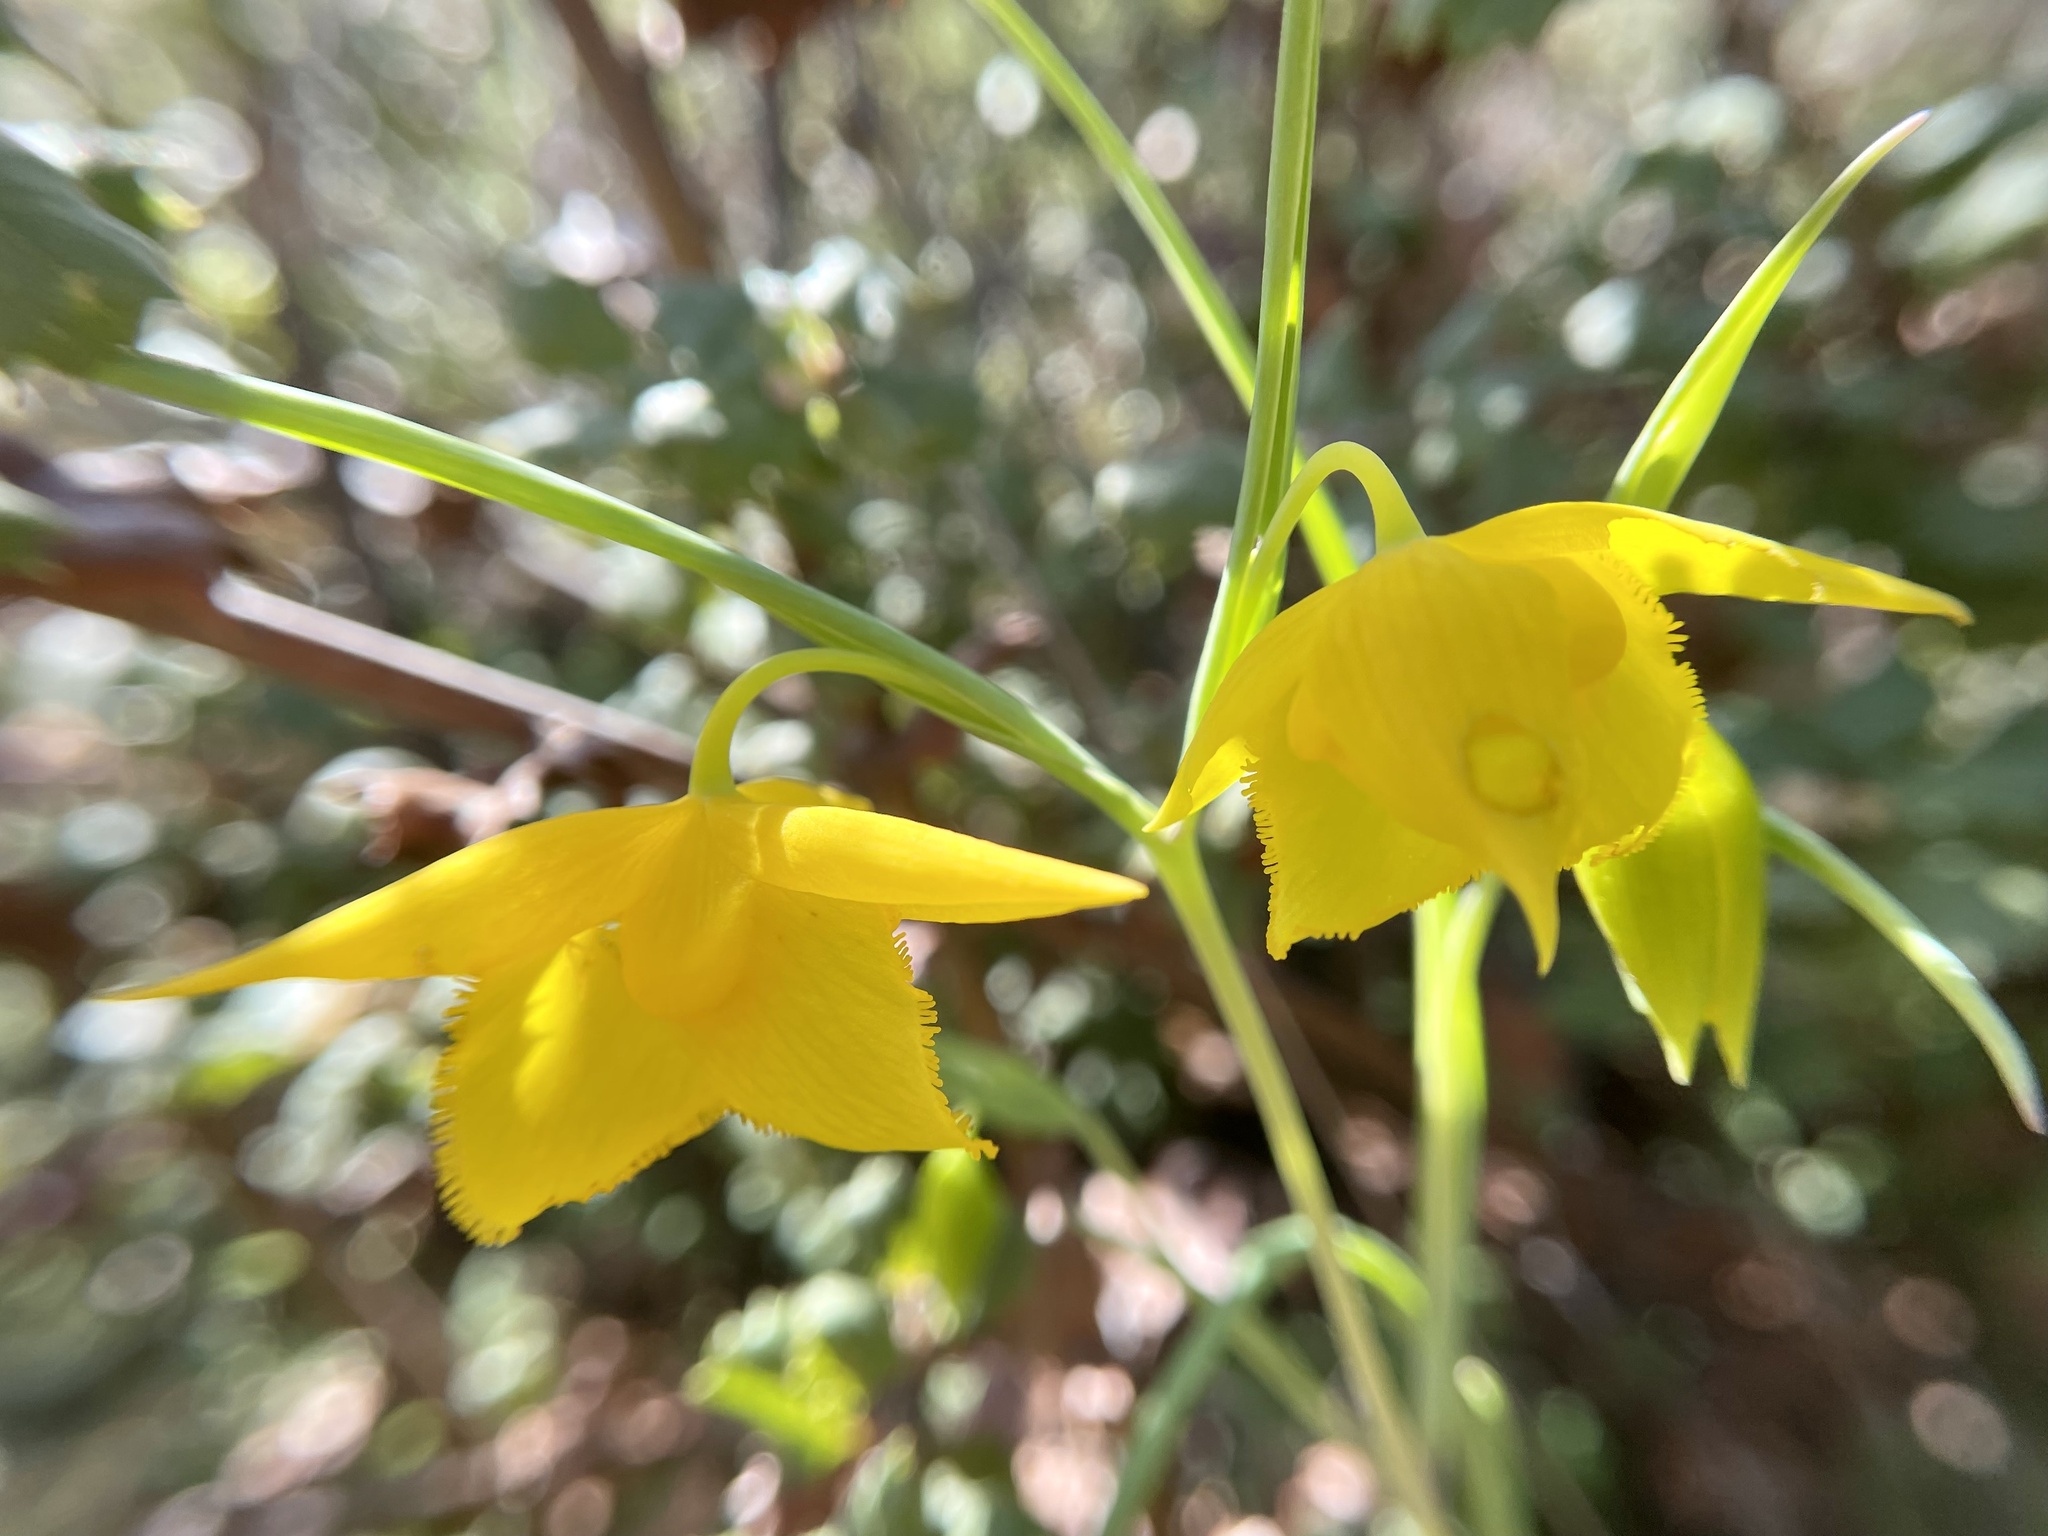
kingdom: Plantae
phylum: Tracheophyta
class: Liliopsida
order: Liliales
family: Liliaceae
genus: Calochortus
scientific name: Calochortus amabilis
